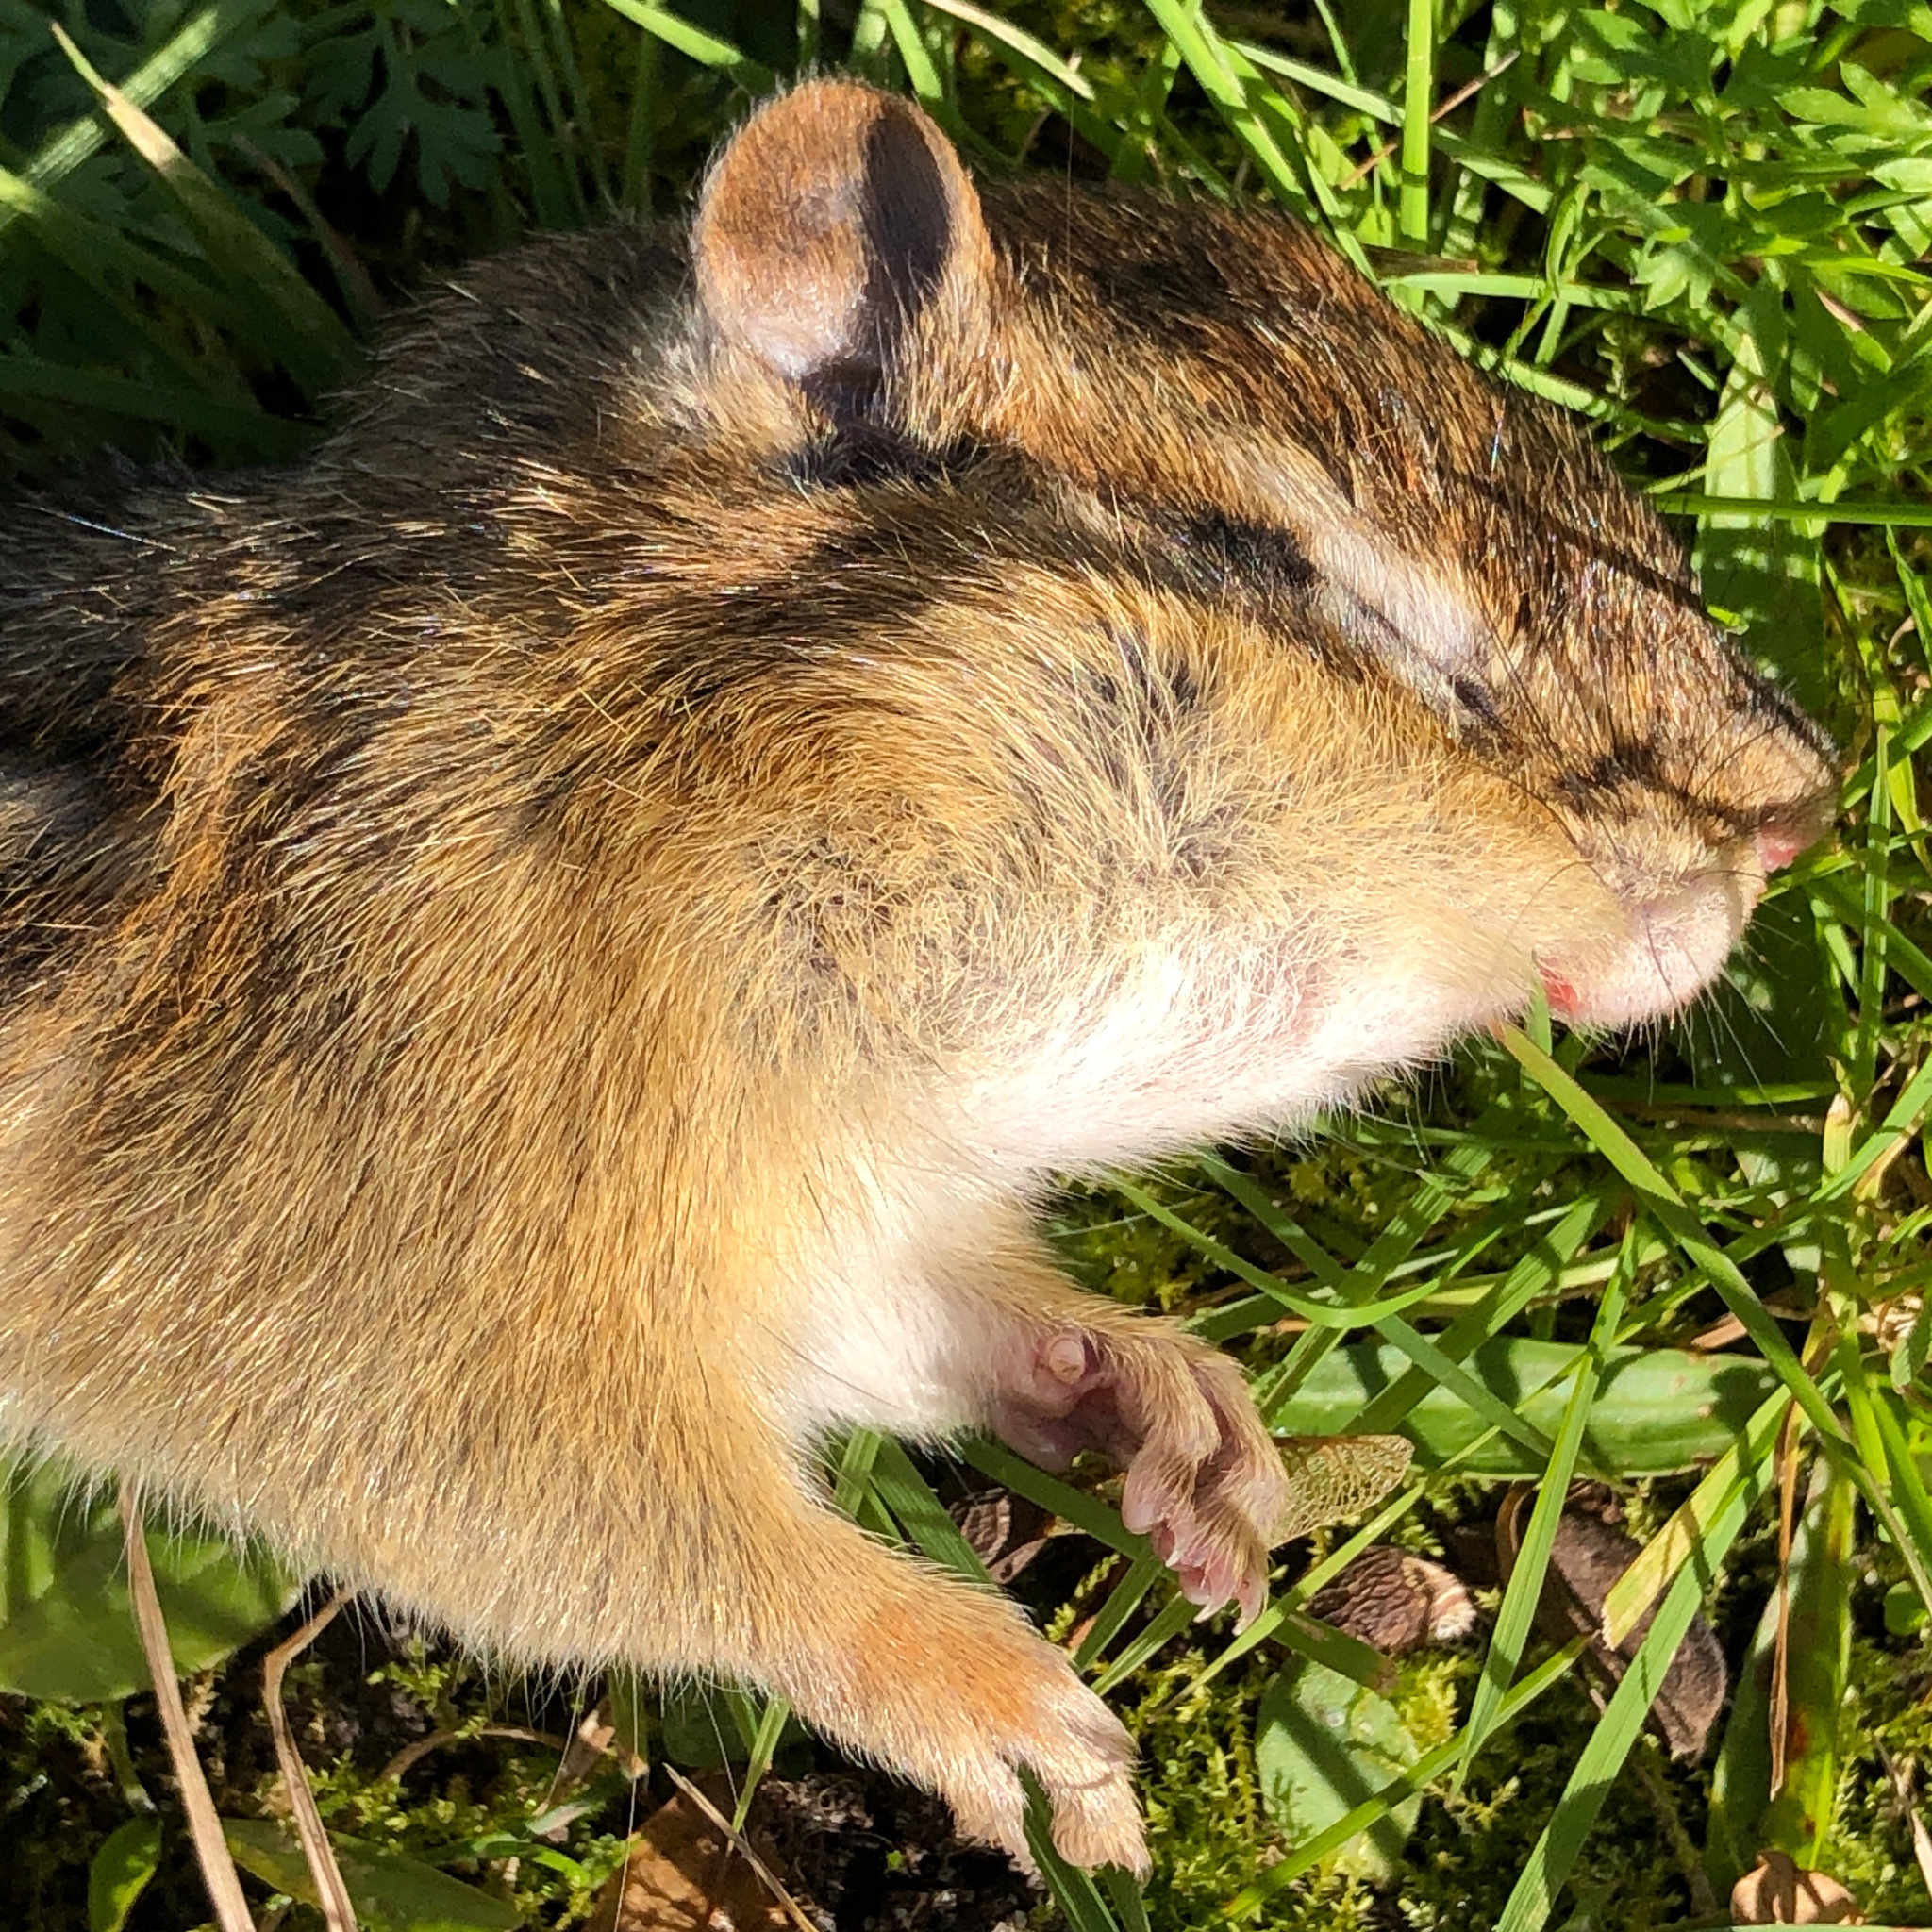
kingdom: Animalia
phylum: Chordata
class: Mammalia
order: Rodentia
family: Sciuridae
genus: Tamias
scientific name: Tamias striatus
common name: Eastern chipmunk
